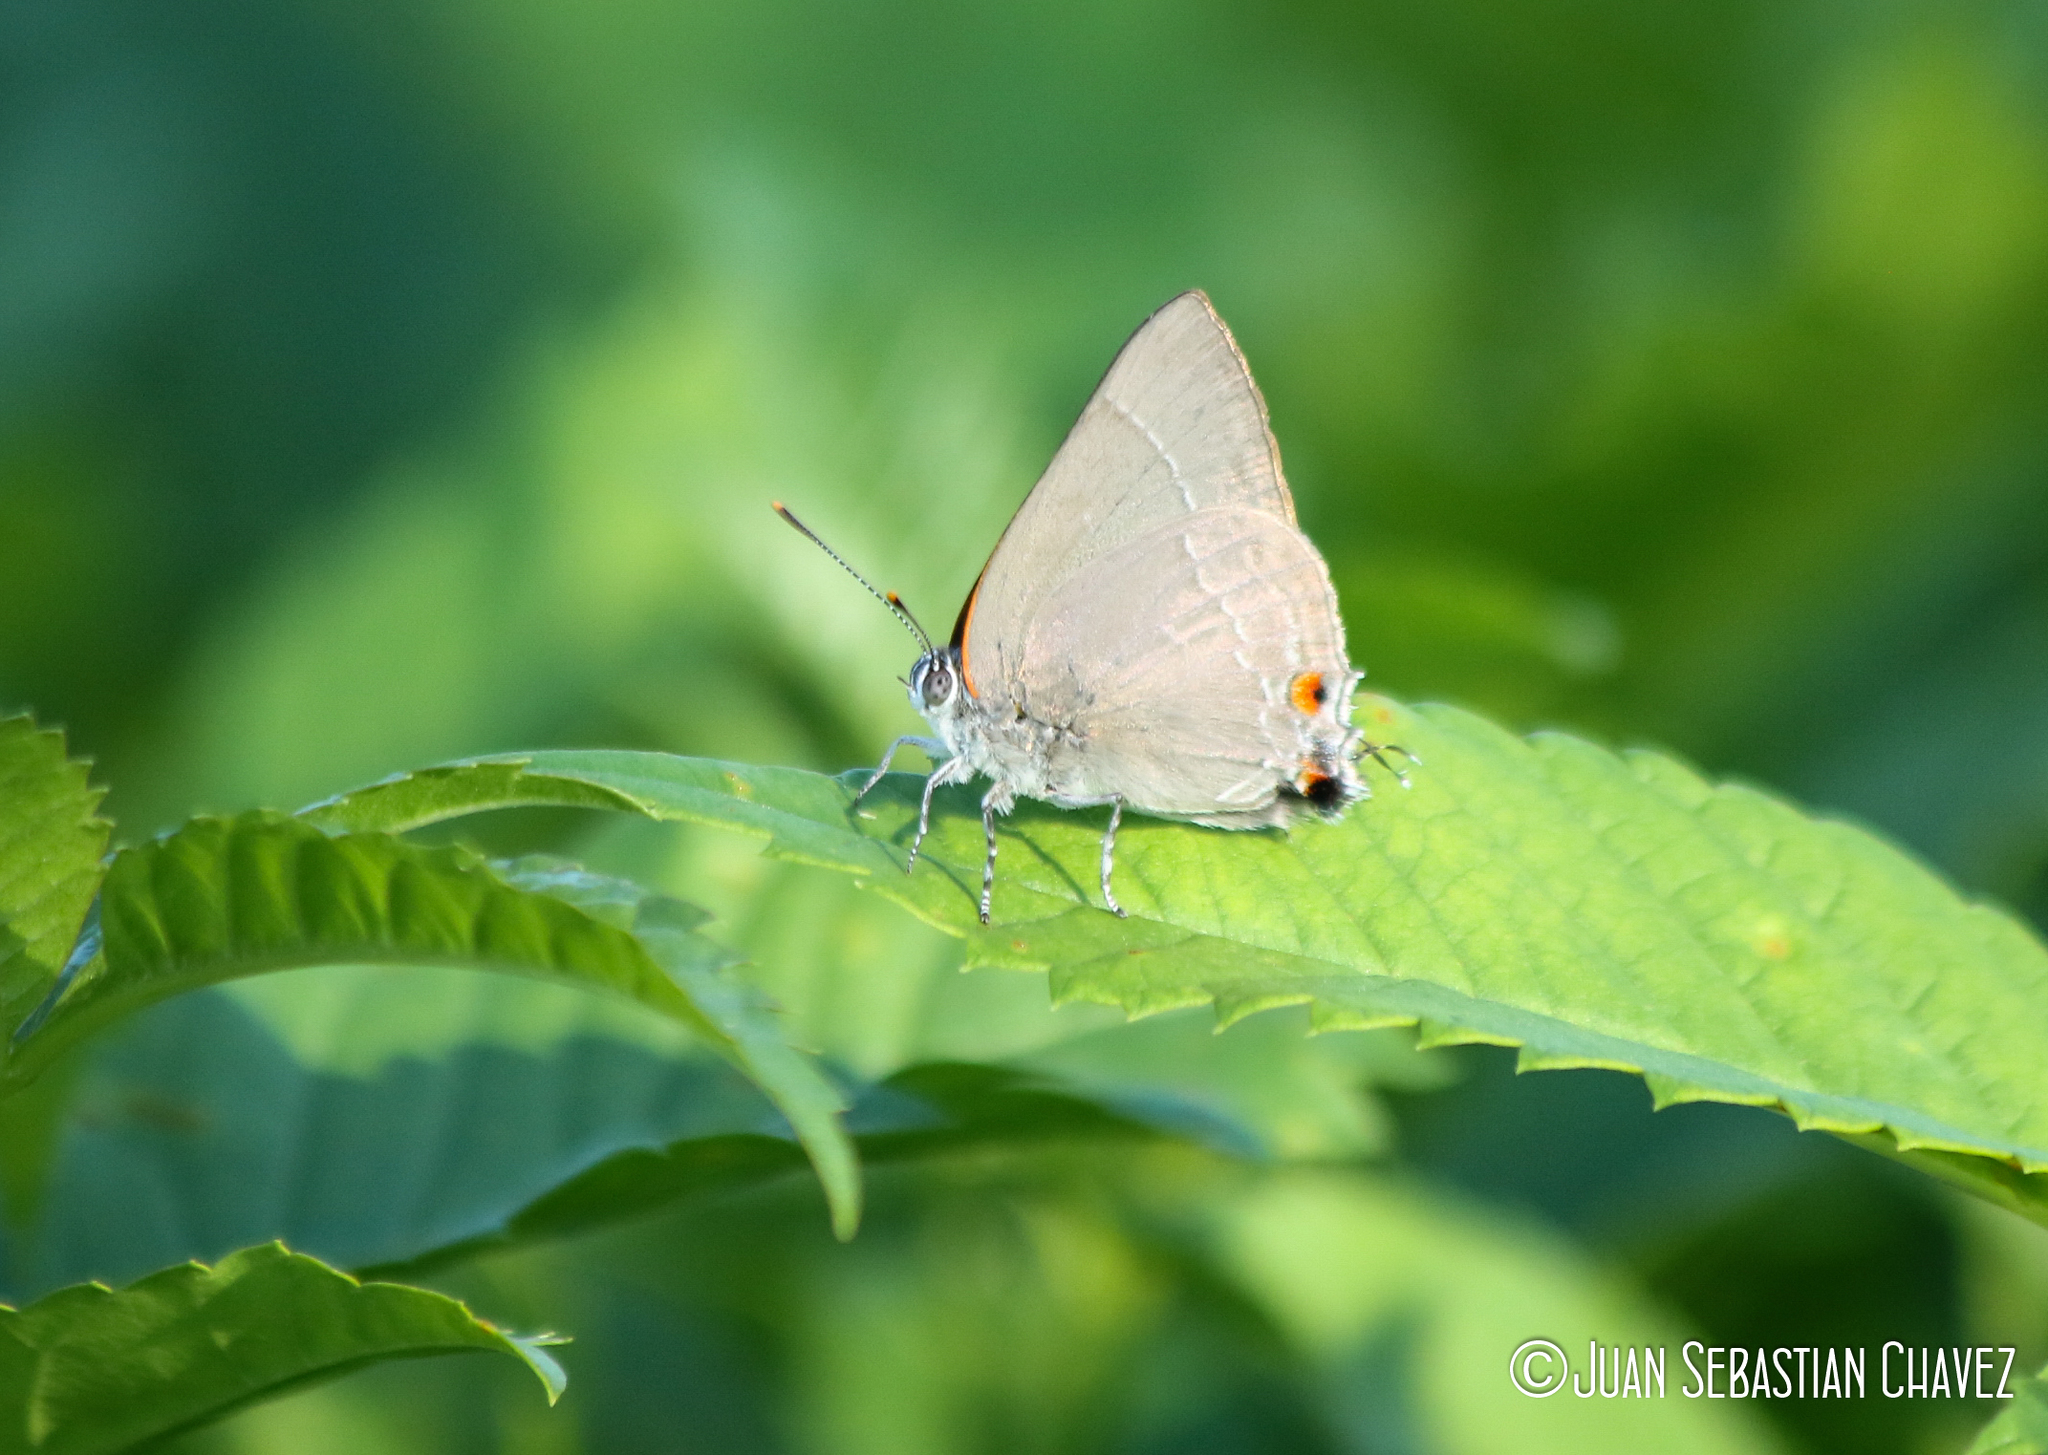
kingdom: Animalia
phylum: Arthropoda
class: Insecta
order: Lepidoptera
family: Lycaenidae
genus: Thecla
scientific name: Thecla marius
